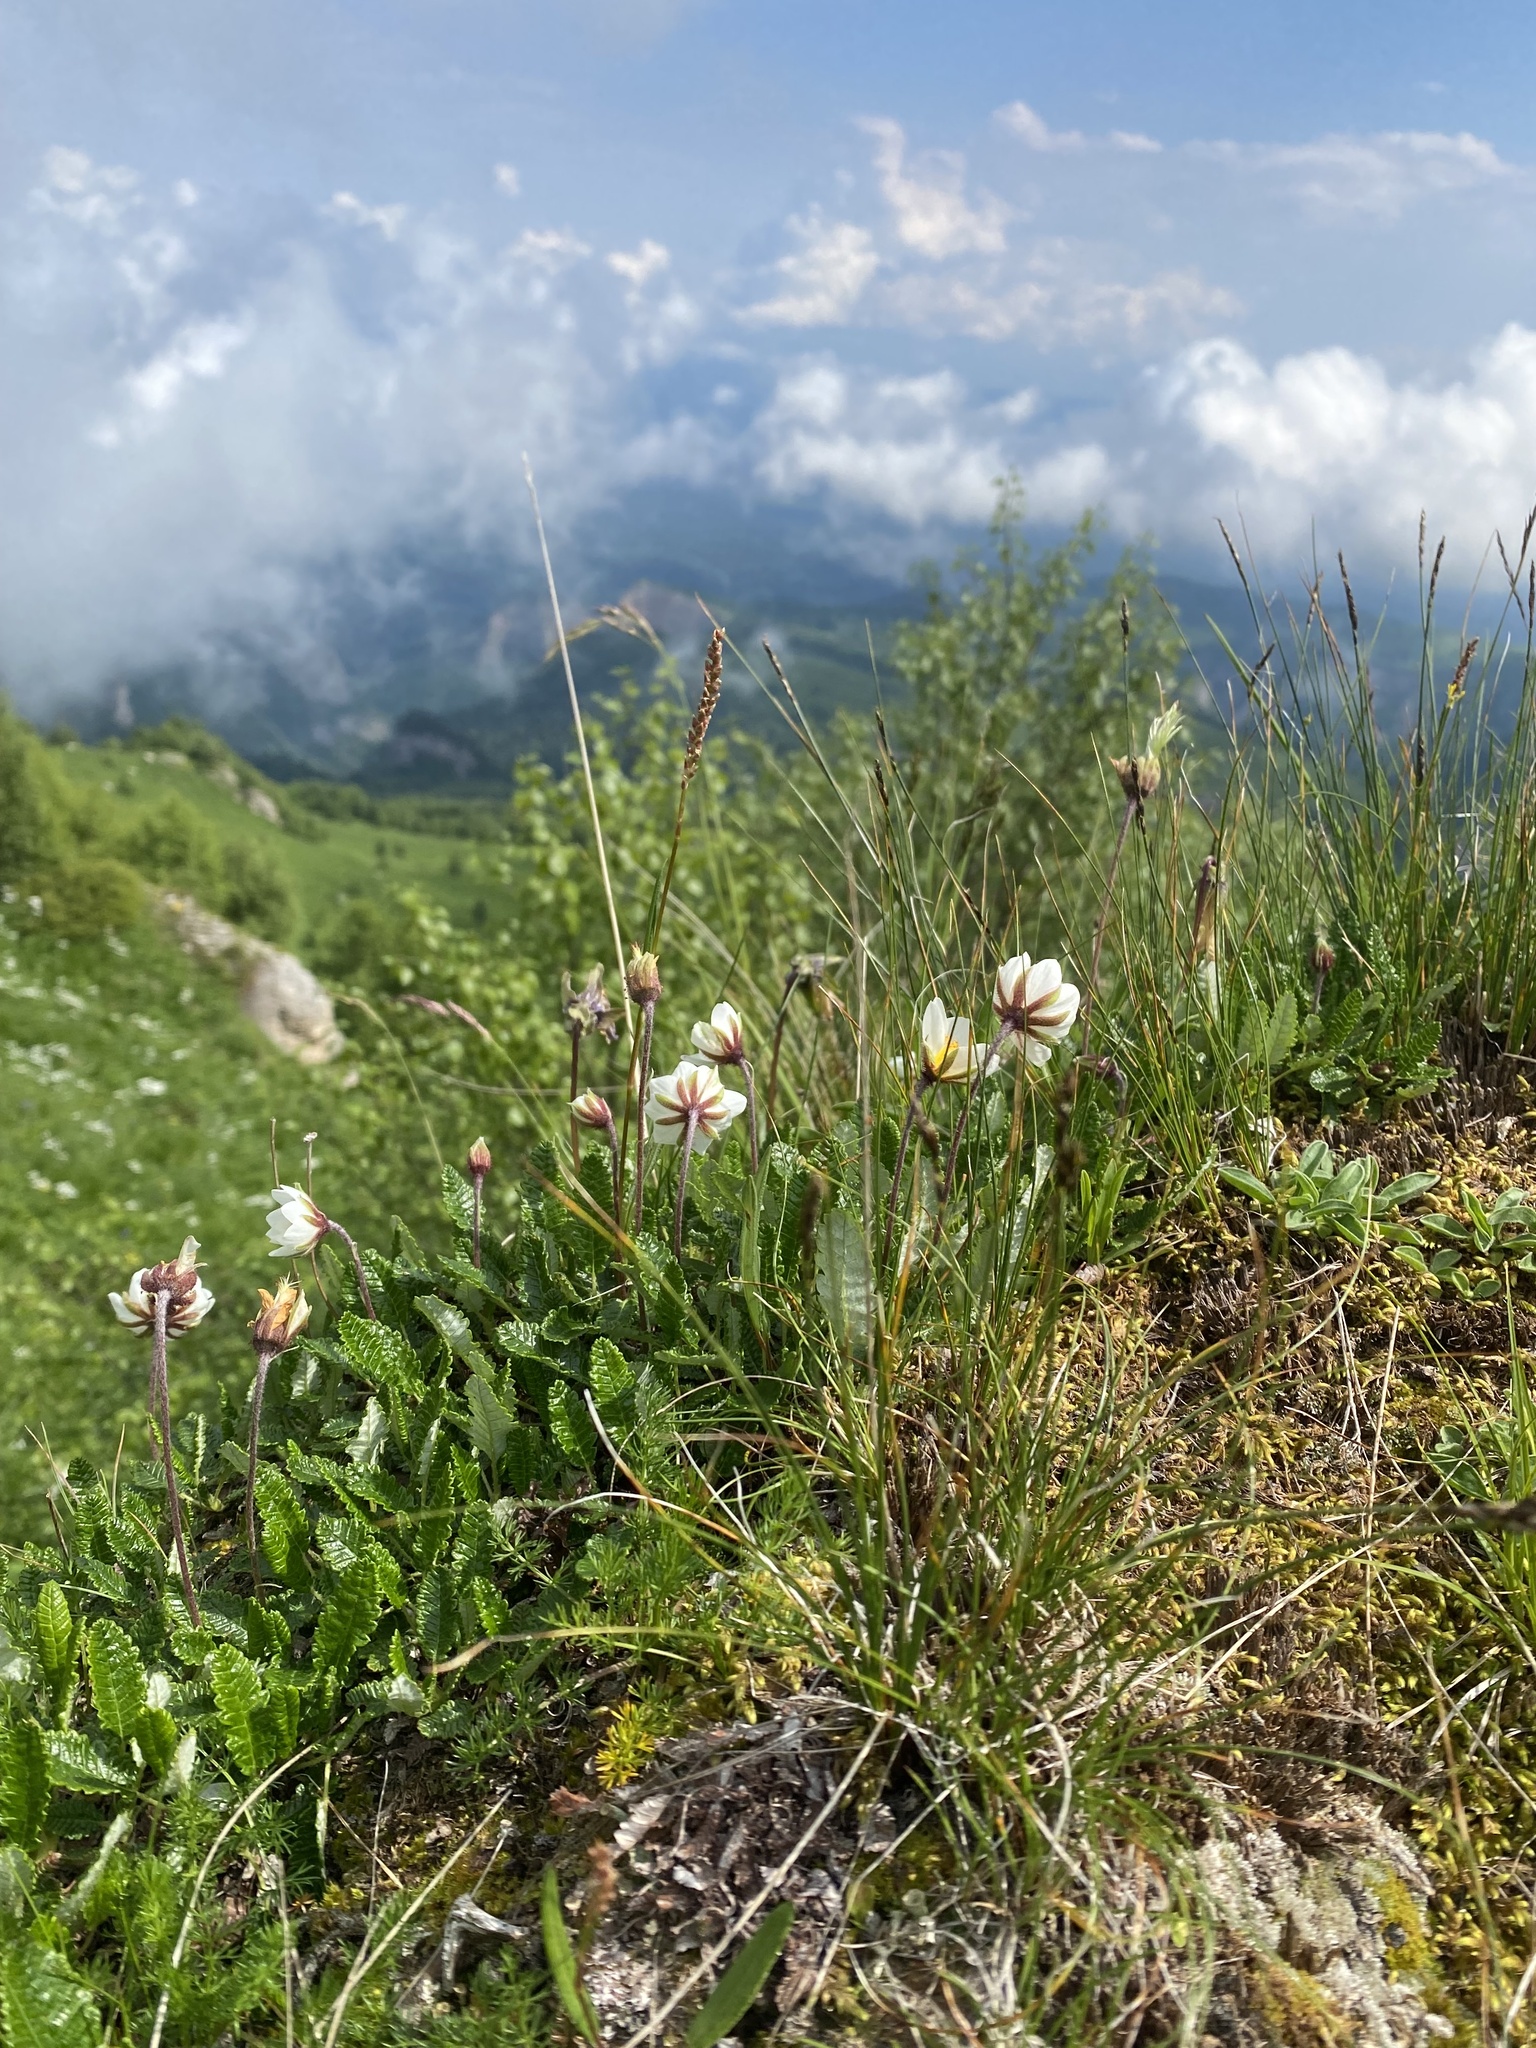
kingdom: Plantae
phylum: Tracheophyta
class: Magnoliopsida
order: Rosales
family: Rosaceae
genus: Dryas
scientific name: Dryas octopetala
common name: Eight-petal mountain-avens
